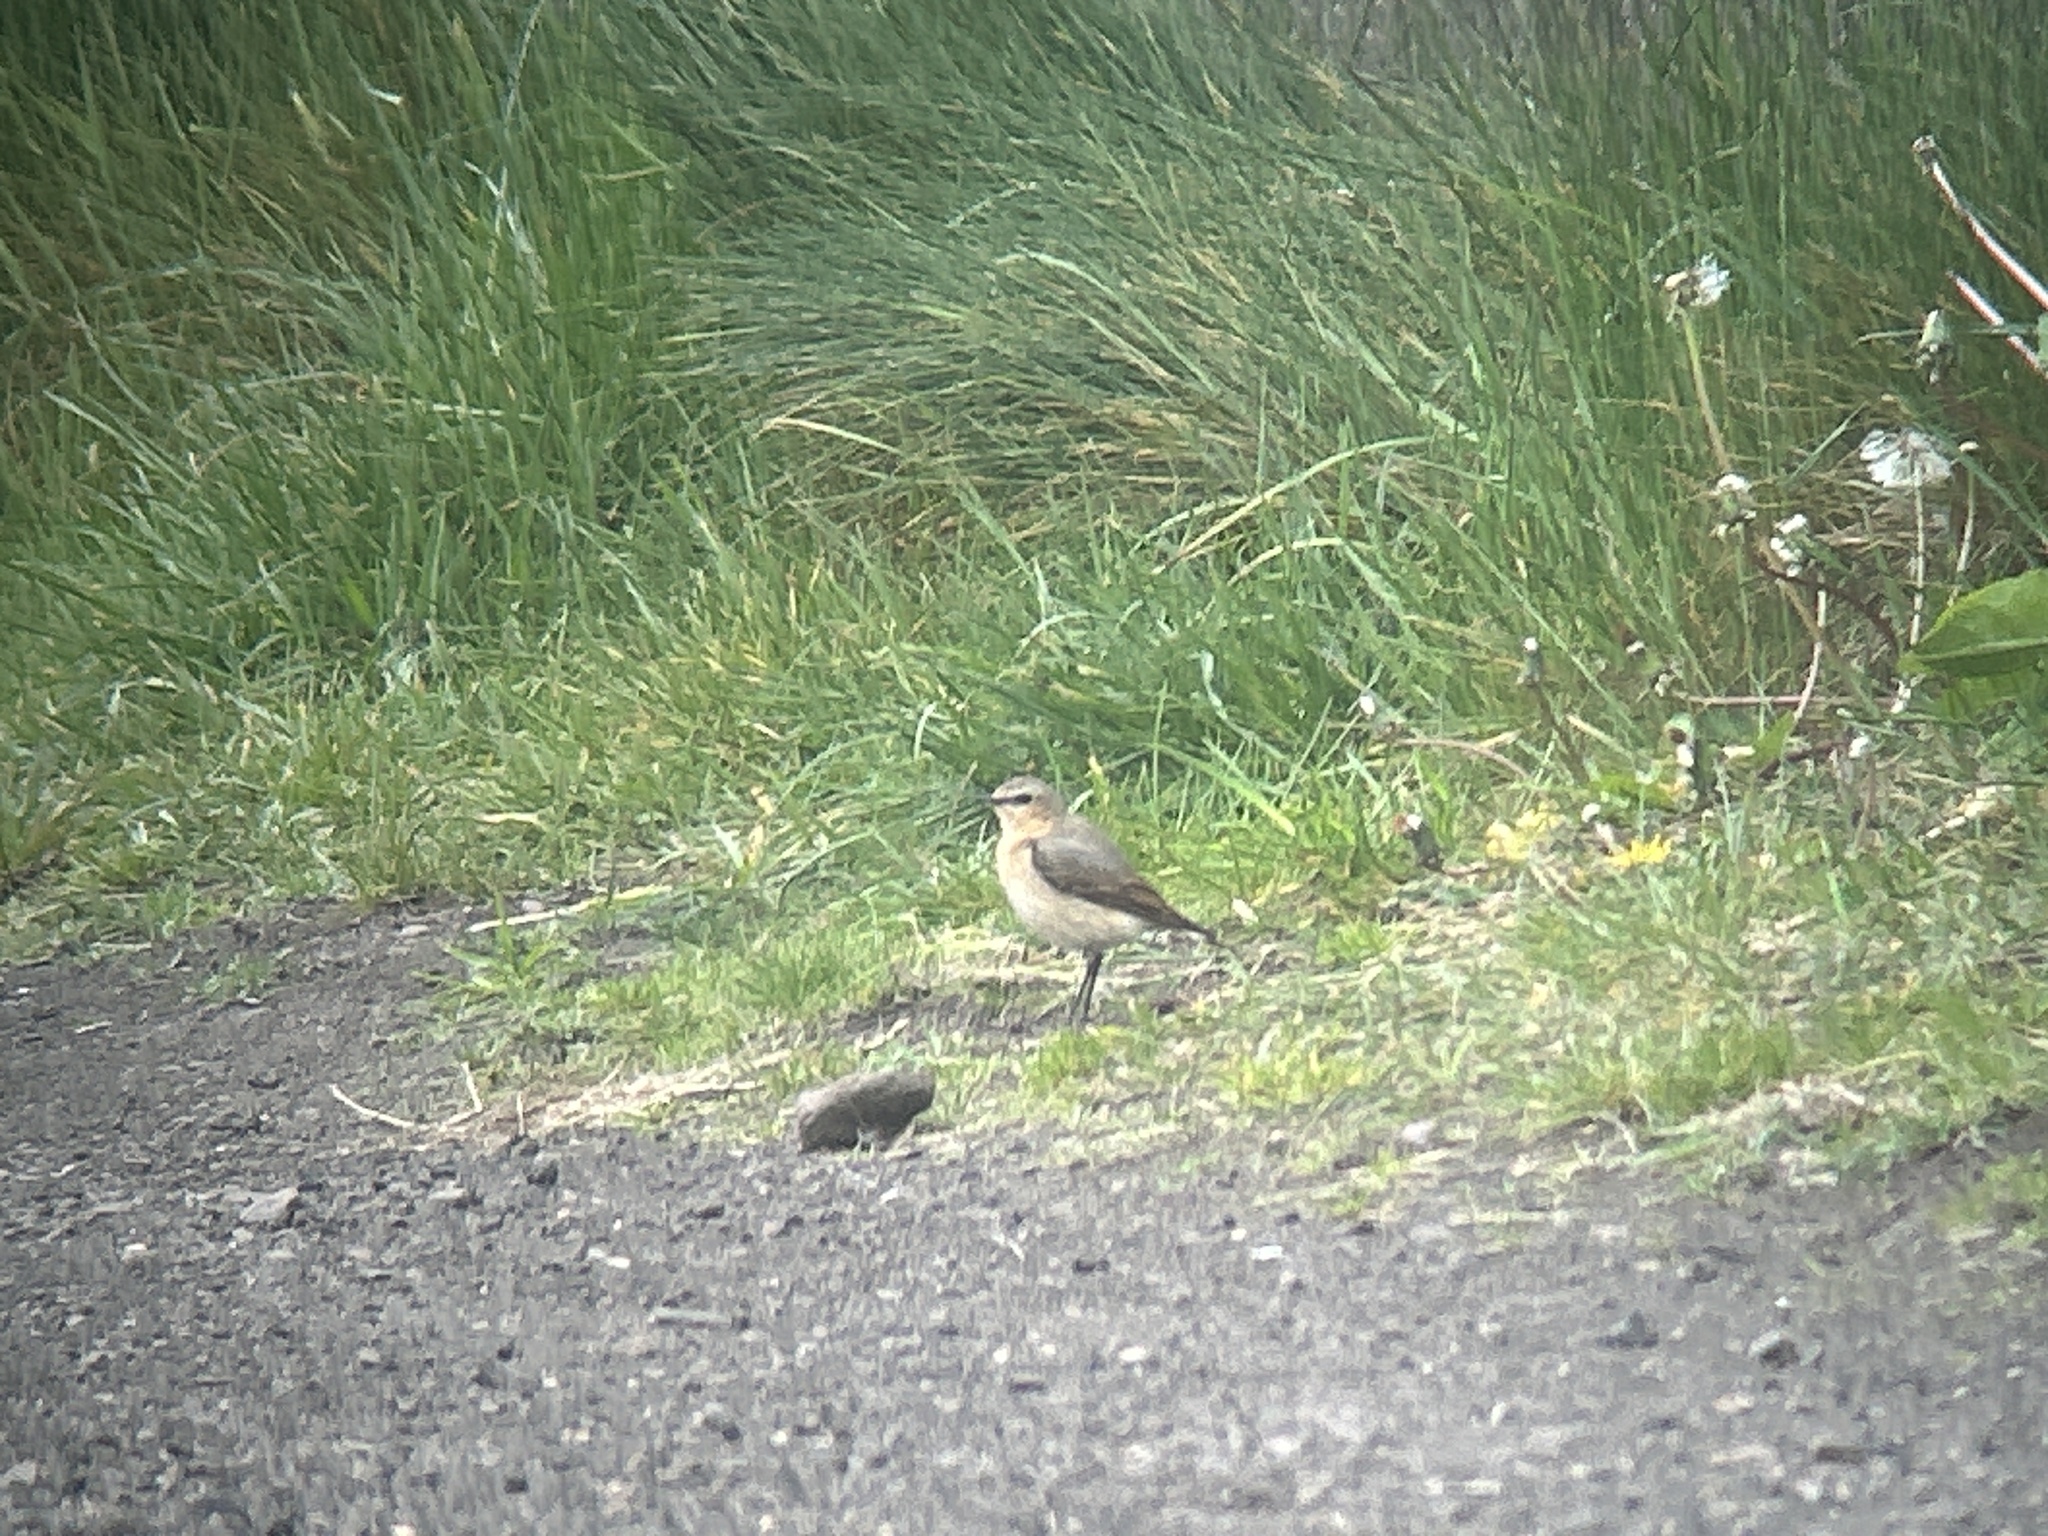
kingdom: Animalia
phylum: Chordata
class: Aves
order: Passeriformes
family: Muscicapidae
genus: Oenanthe
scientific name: Oenanthe oenanthe
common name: Northern wheatear
